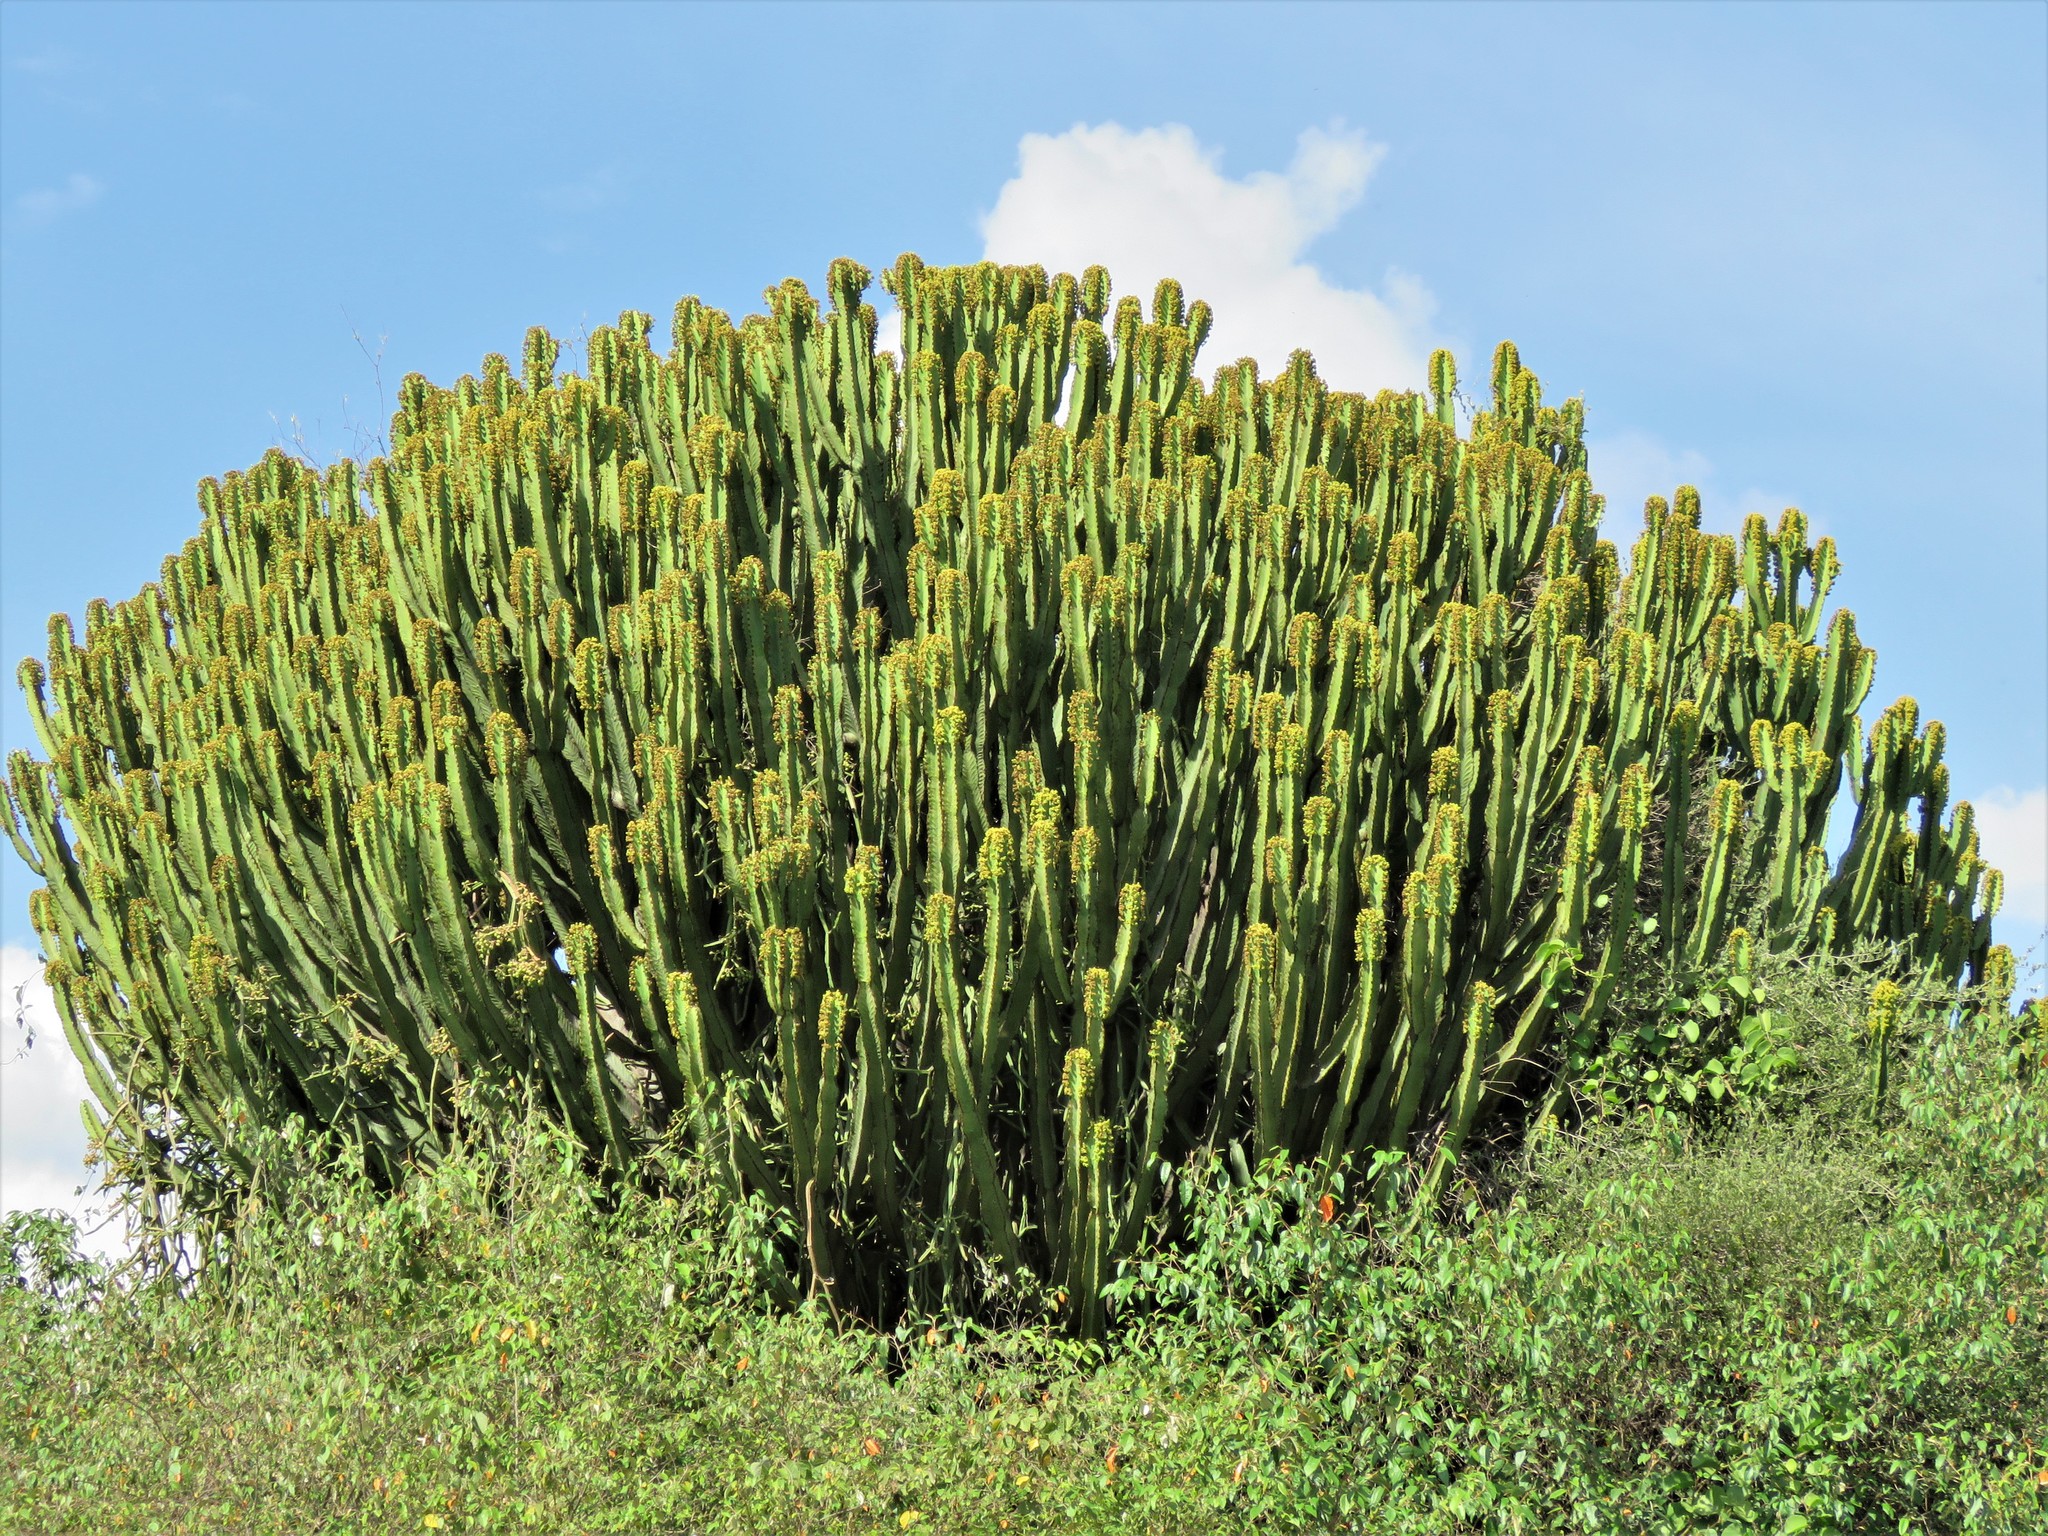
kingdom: Plantae
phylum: Tracheophyta
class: Magnoliopsida
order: Malpighiales
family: Euphorbiaceae
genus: Euphorbia
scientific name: Euphorbia ingens
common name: Cactus spurge
